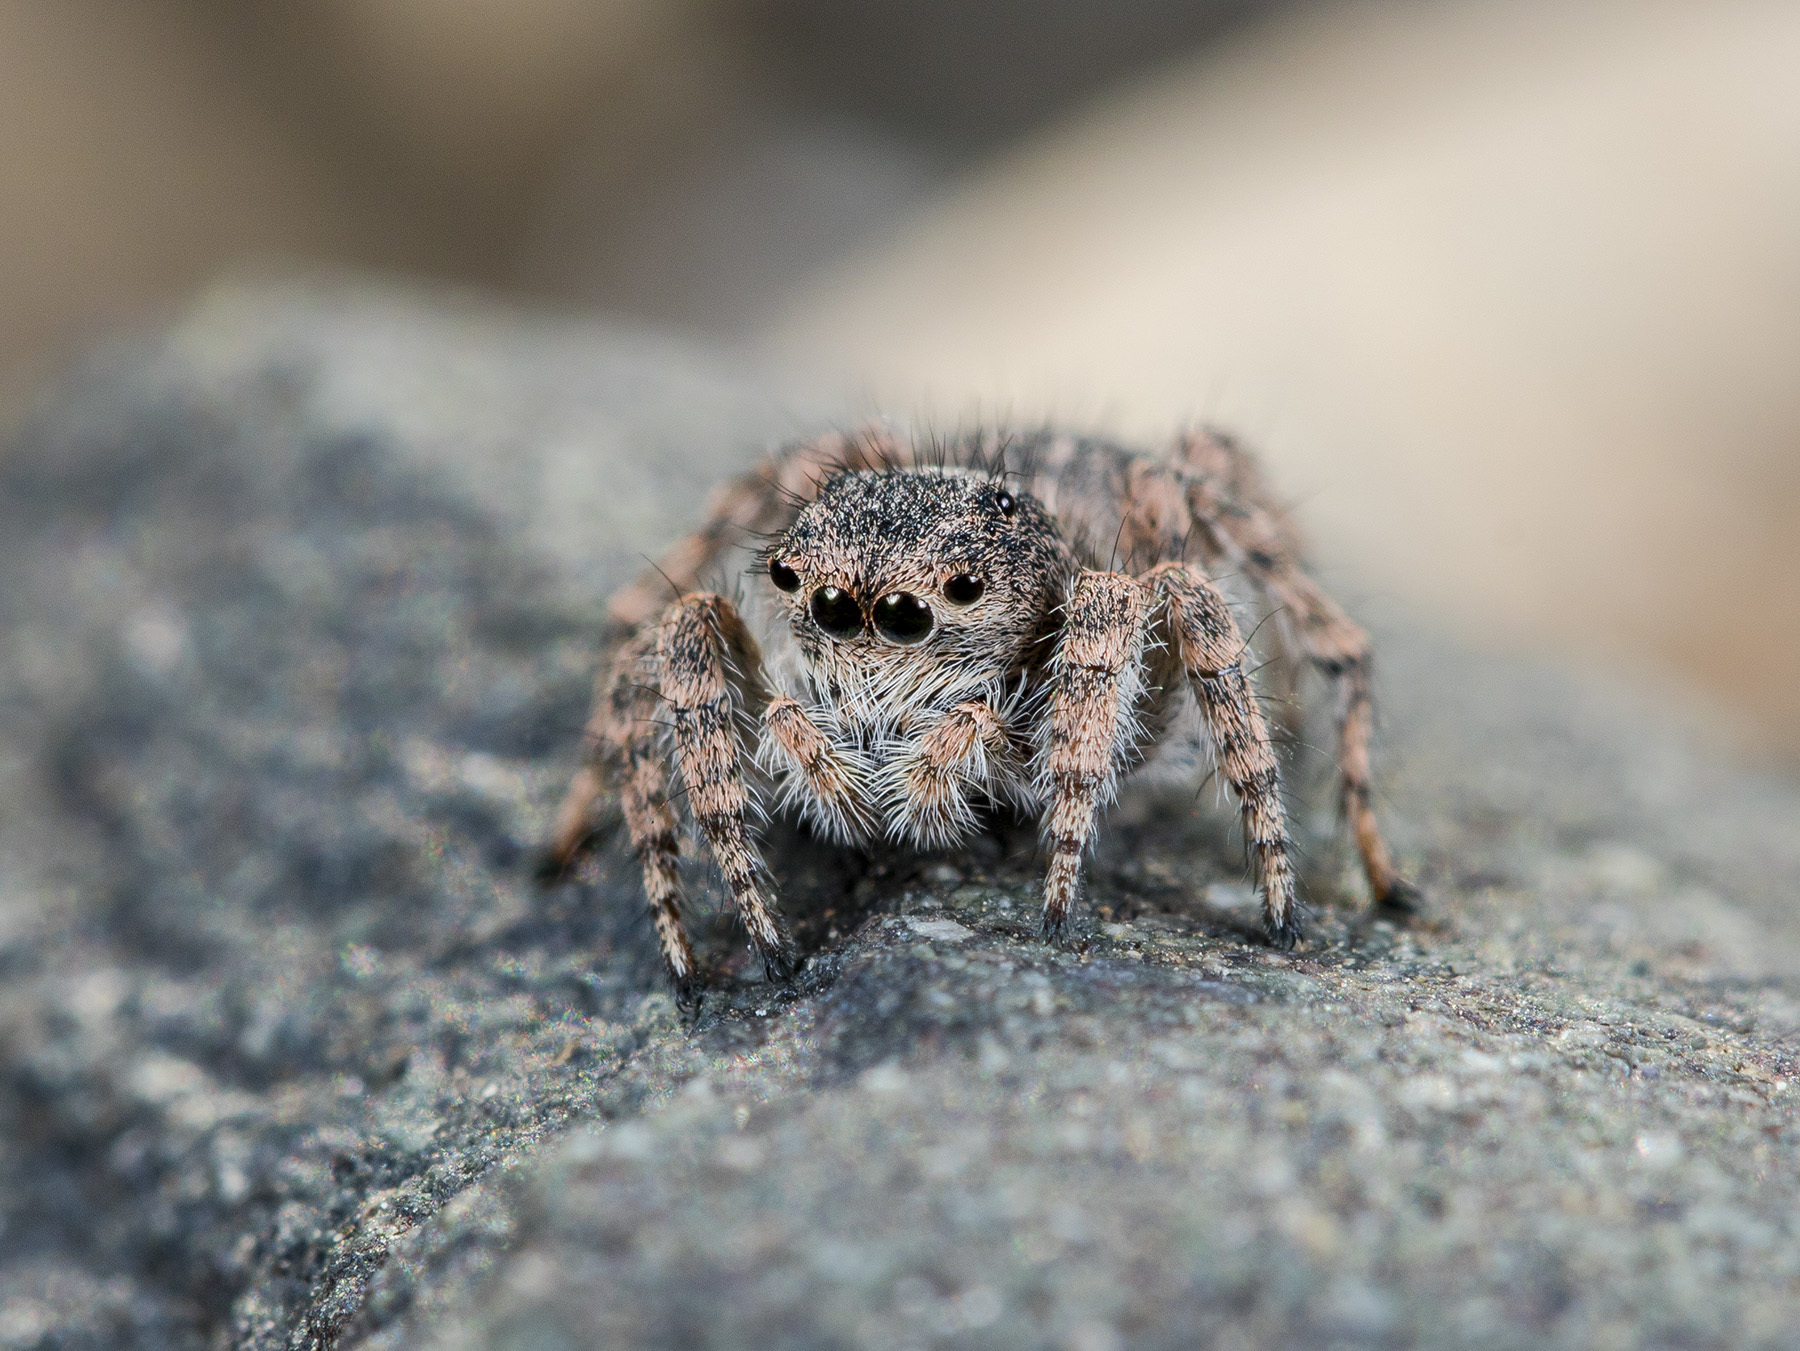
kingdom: Animalia
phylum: Arthropoda
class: Arachnida
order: Araneae
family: Salticidae
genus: Aelurillus
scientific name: Aelurillus dubatolovi
